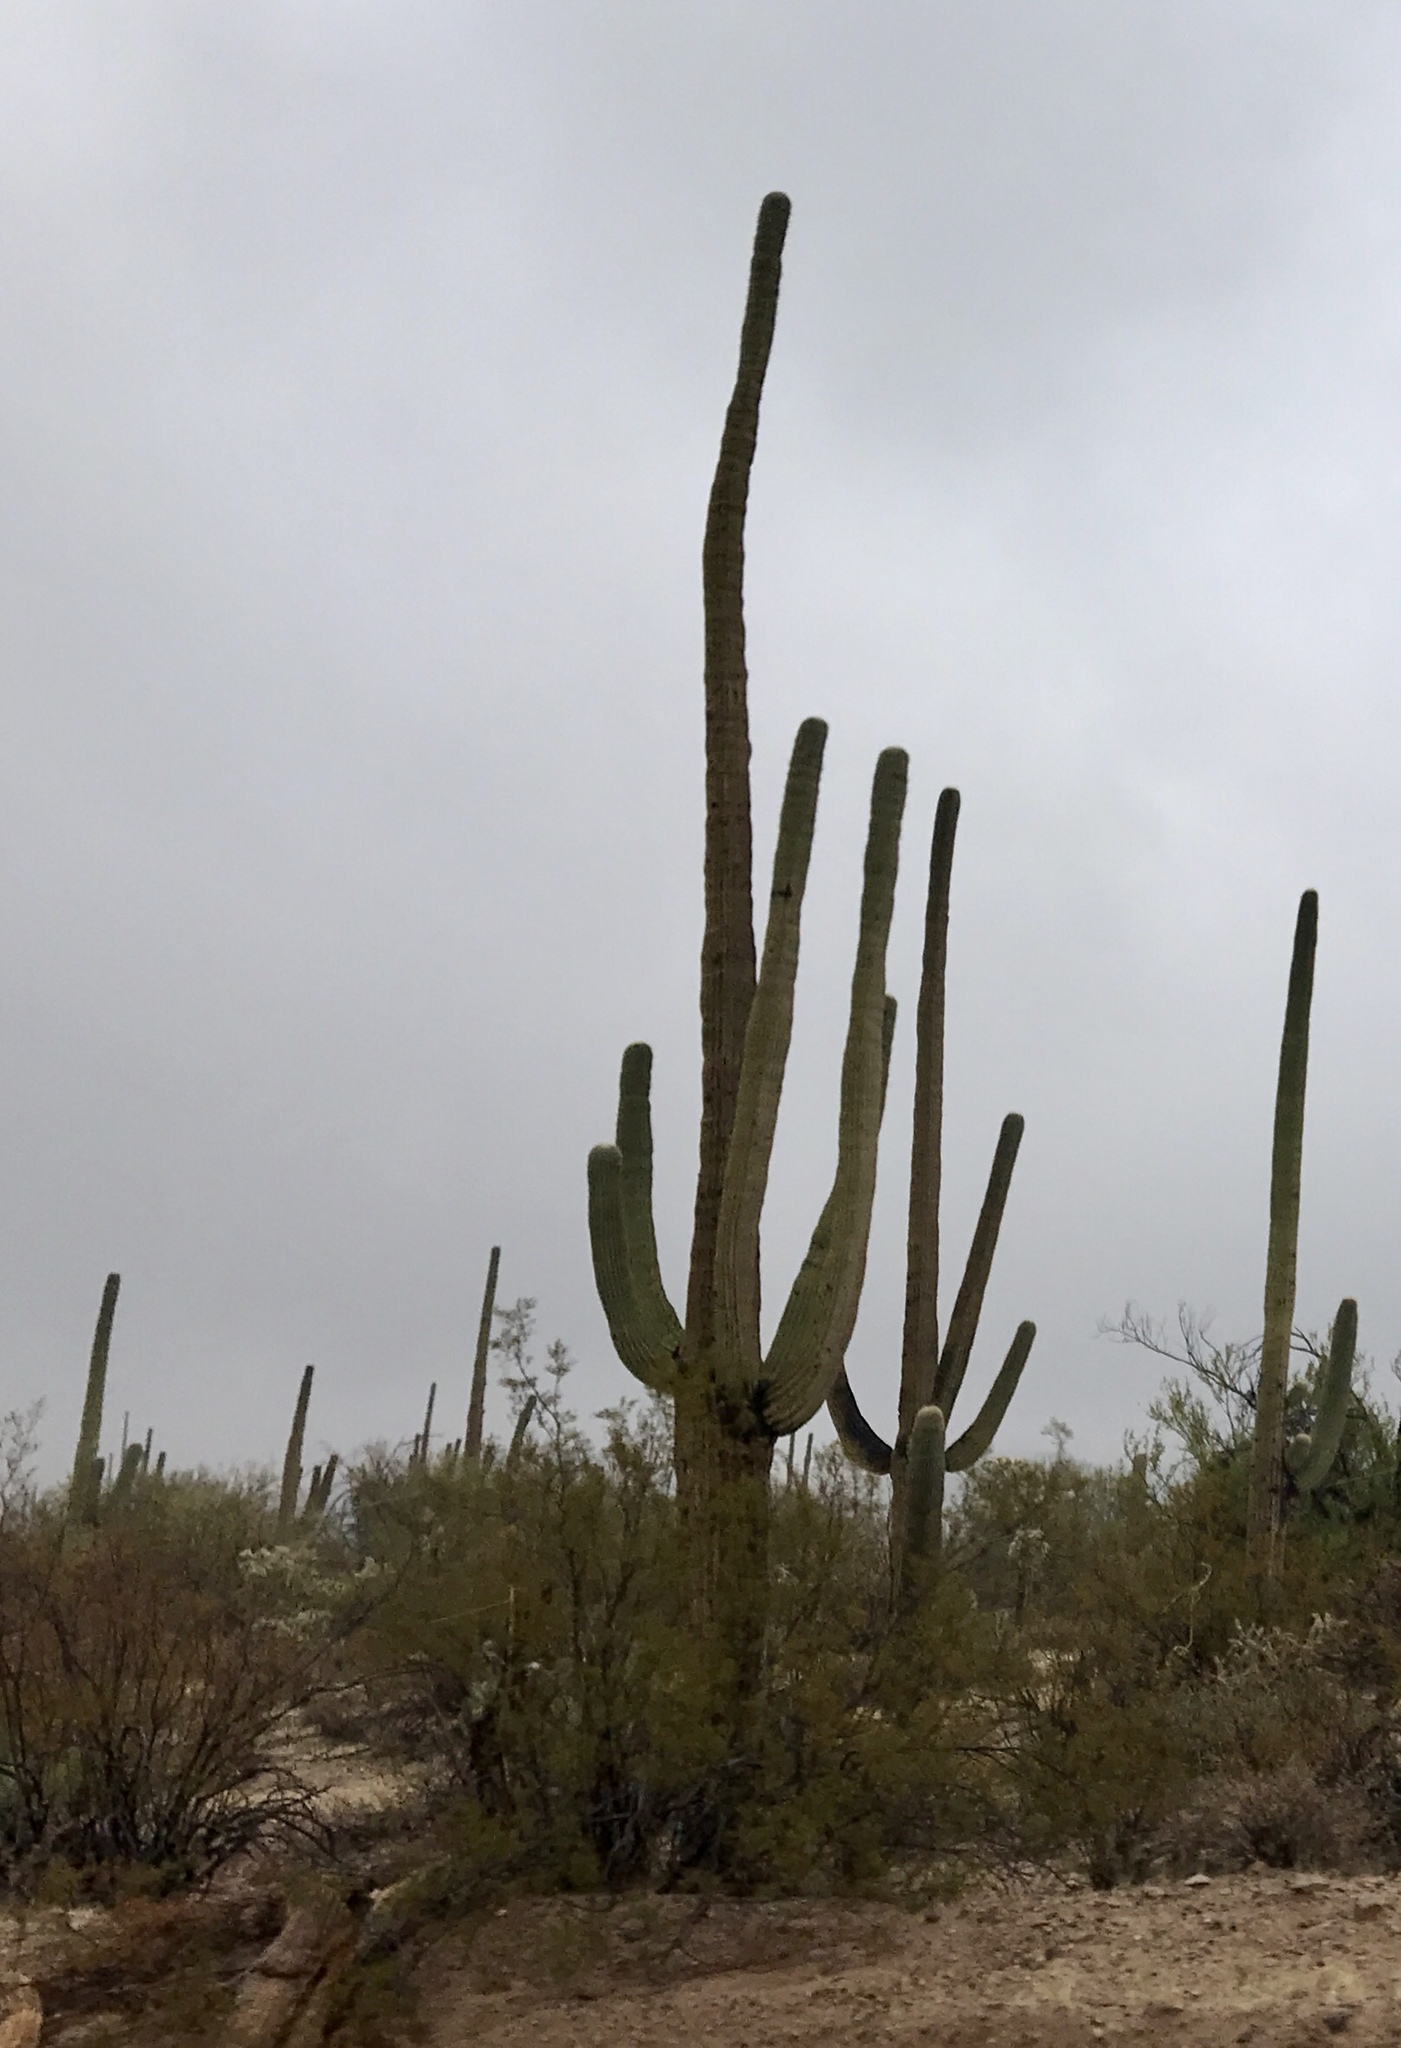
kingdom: Plantae
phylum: Tracheophyta
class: Magnoliopsida
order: Caryophyllales
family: Cactaceae
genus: Carnegiea
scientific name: Carnegiea gigantea
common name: Saguaro
